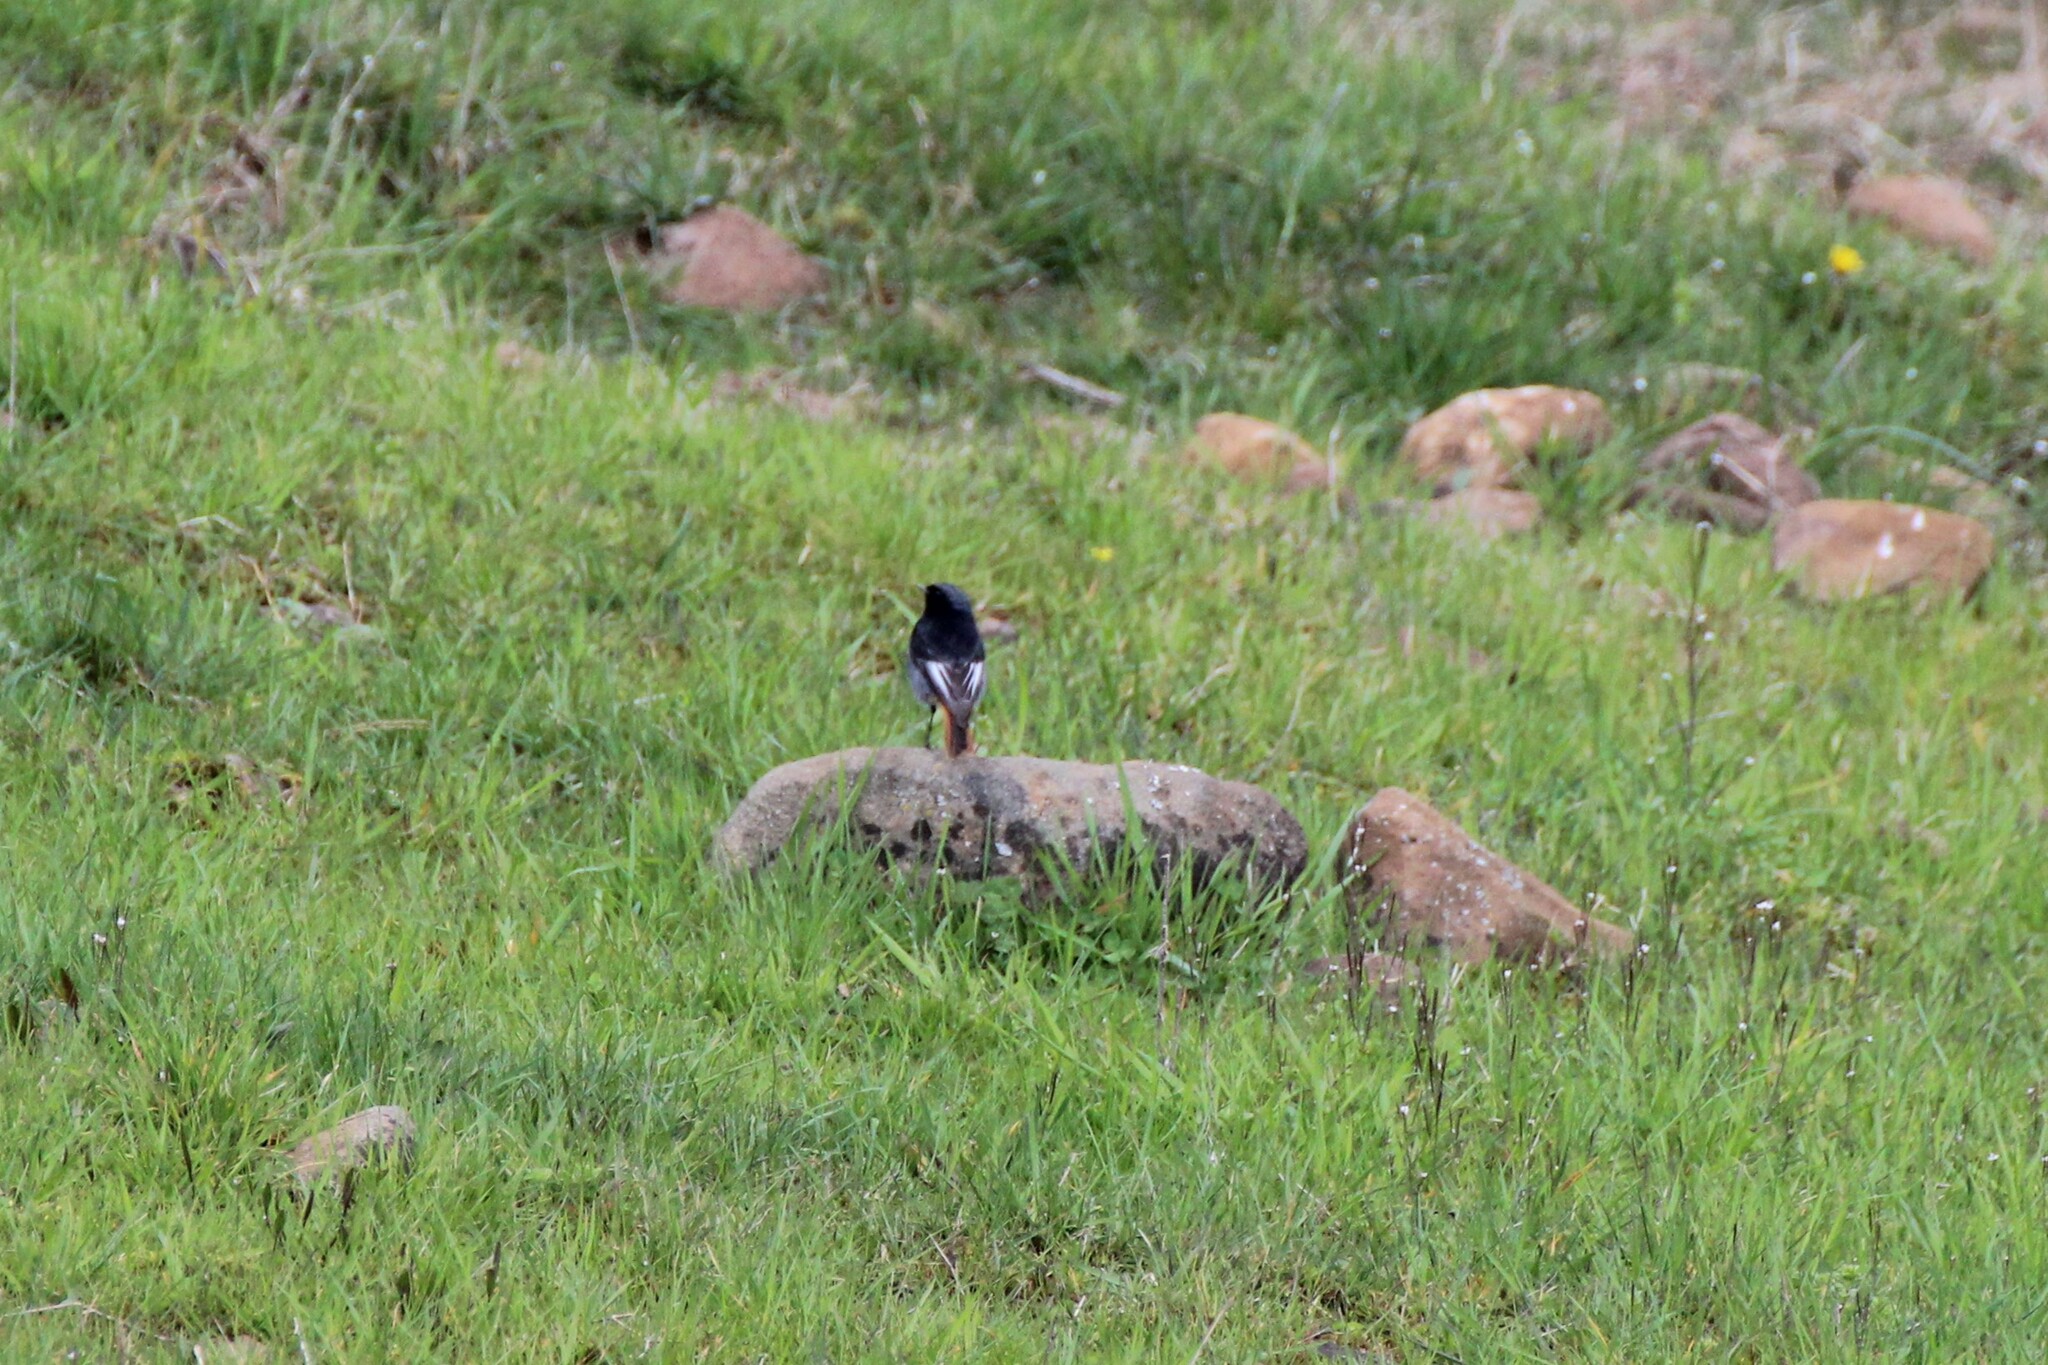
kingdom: Animalia
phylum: Chordata
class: Aves
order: Passeriformes
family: Muscicapidae
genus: Phoenicurus
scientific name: Phoenicurus ochruros
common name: Black redstart
